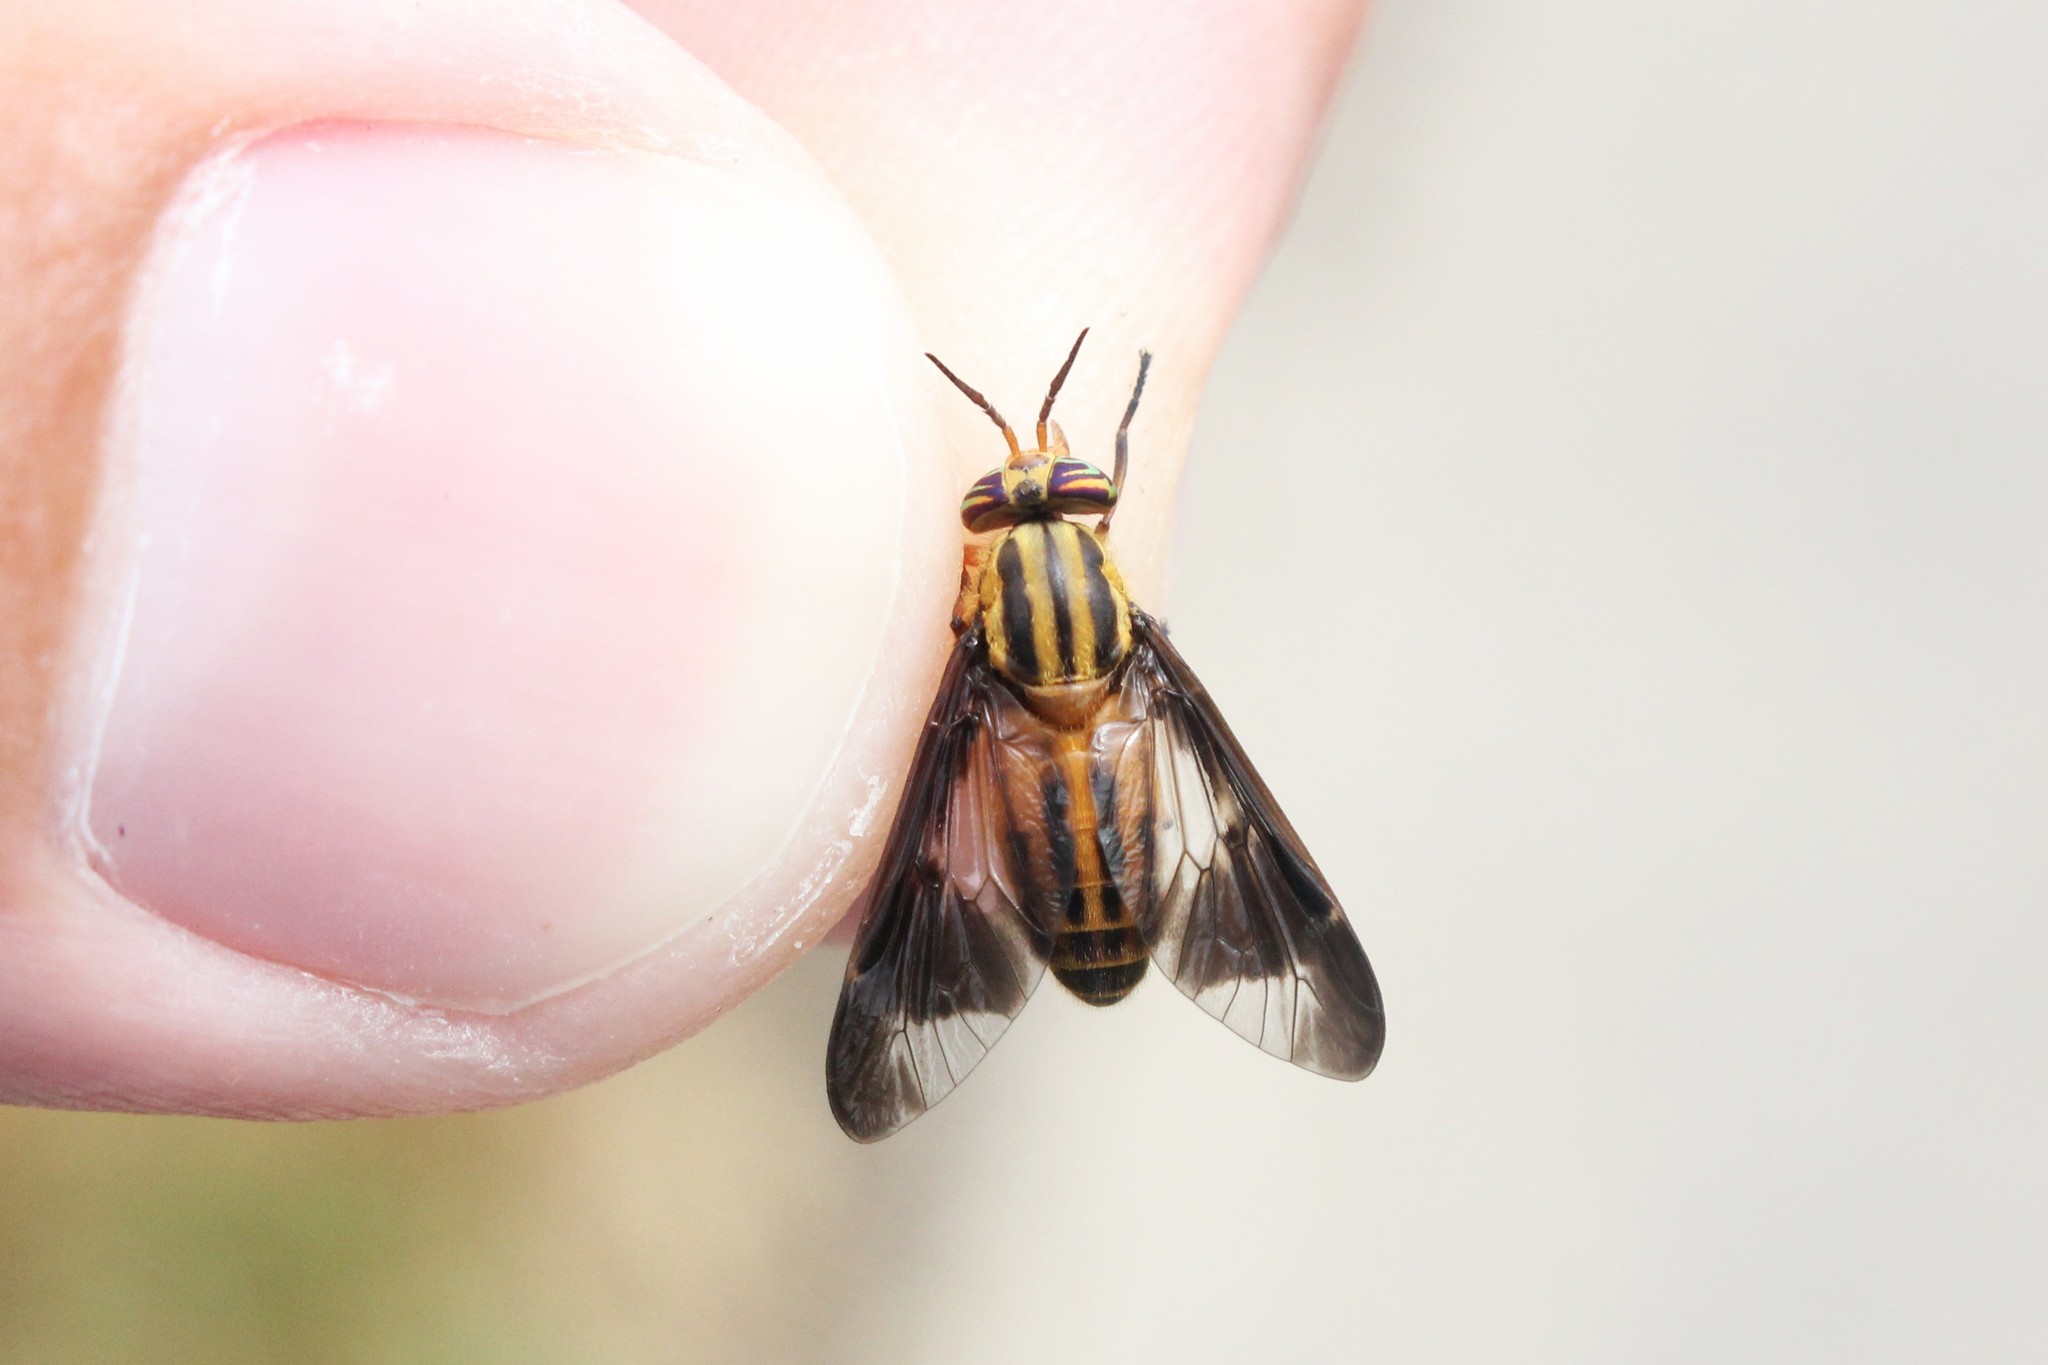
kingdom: Animalia
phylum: Arthropoda
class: Insecta
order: Diptera
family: Tabanidae
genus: Chrysops
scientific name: Chrysops vittatus
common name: Striped deer fly
